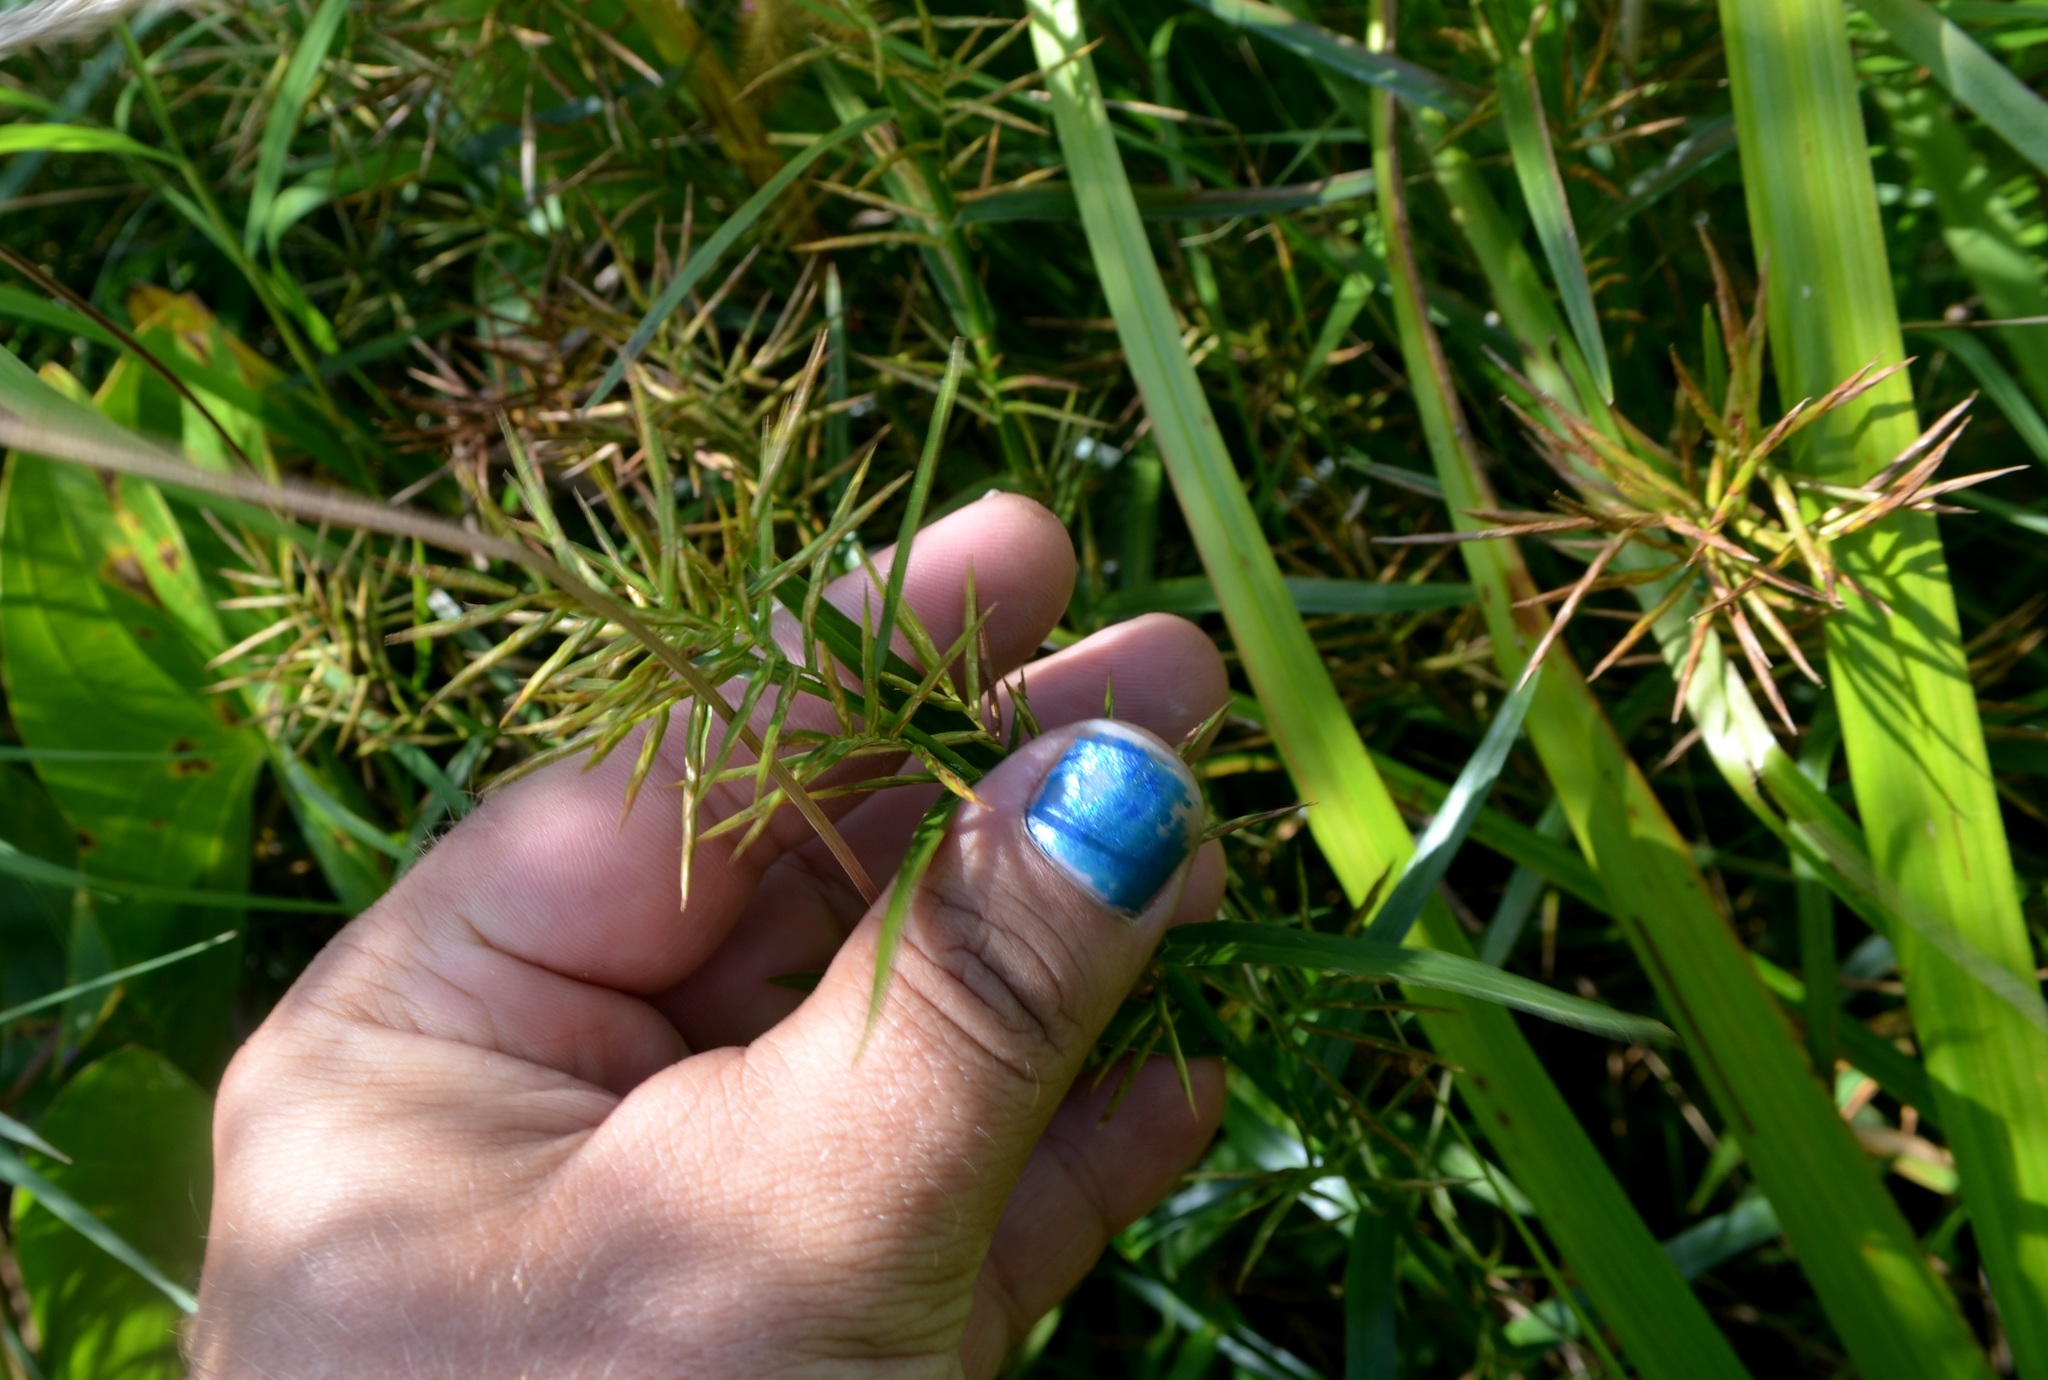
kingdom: Plantae
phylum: Tracheophyta
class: Liliopsida
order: Poales
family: Cyperaceae
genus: Dulichium
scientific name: Dulichium arundinaceum
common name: Three-way sedge
